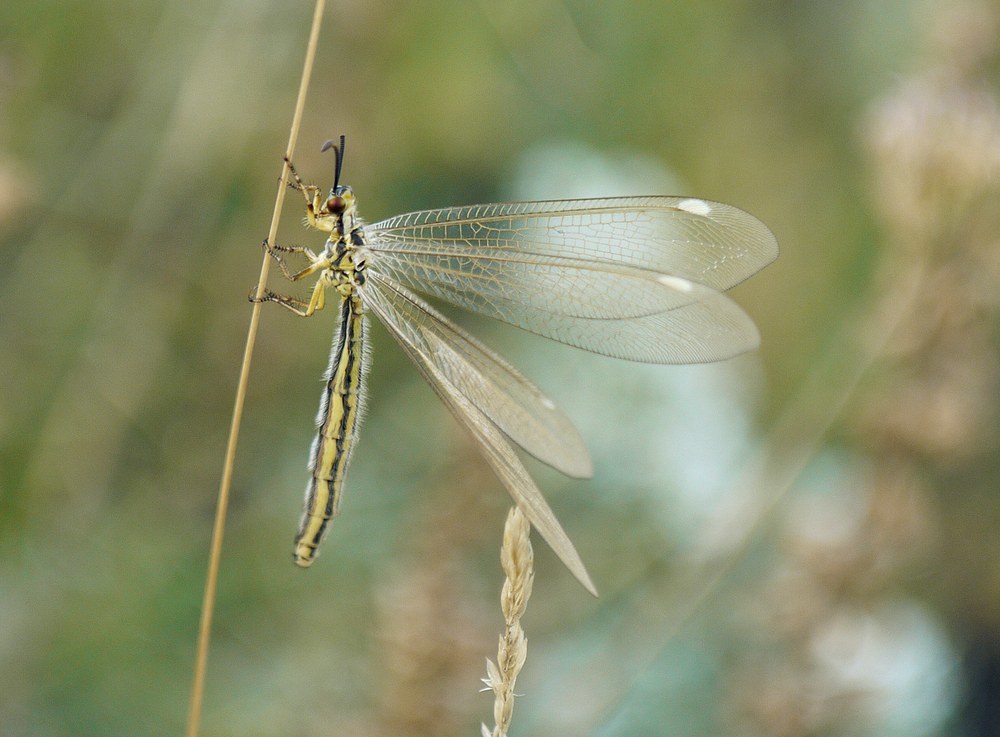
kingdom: Animalia
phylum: Arthropoda
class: Insecta
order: Neuroptera
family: Myrmeleontidae
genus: Myrmecaelurus
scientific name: Myrmecaelurus trigrammus
